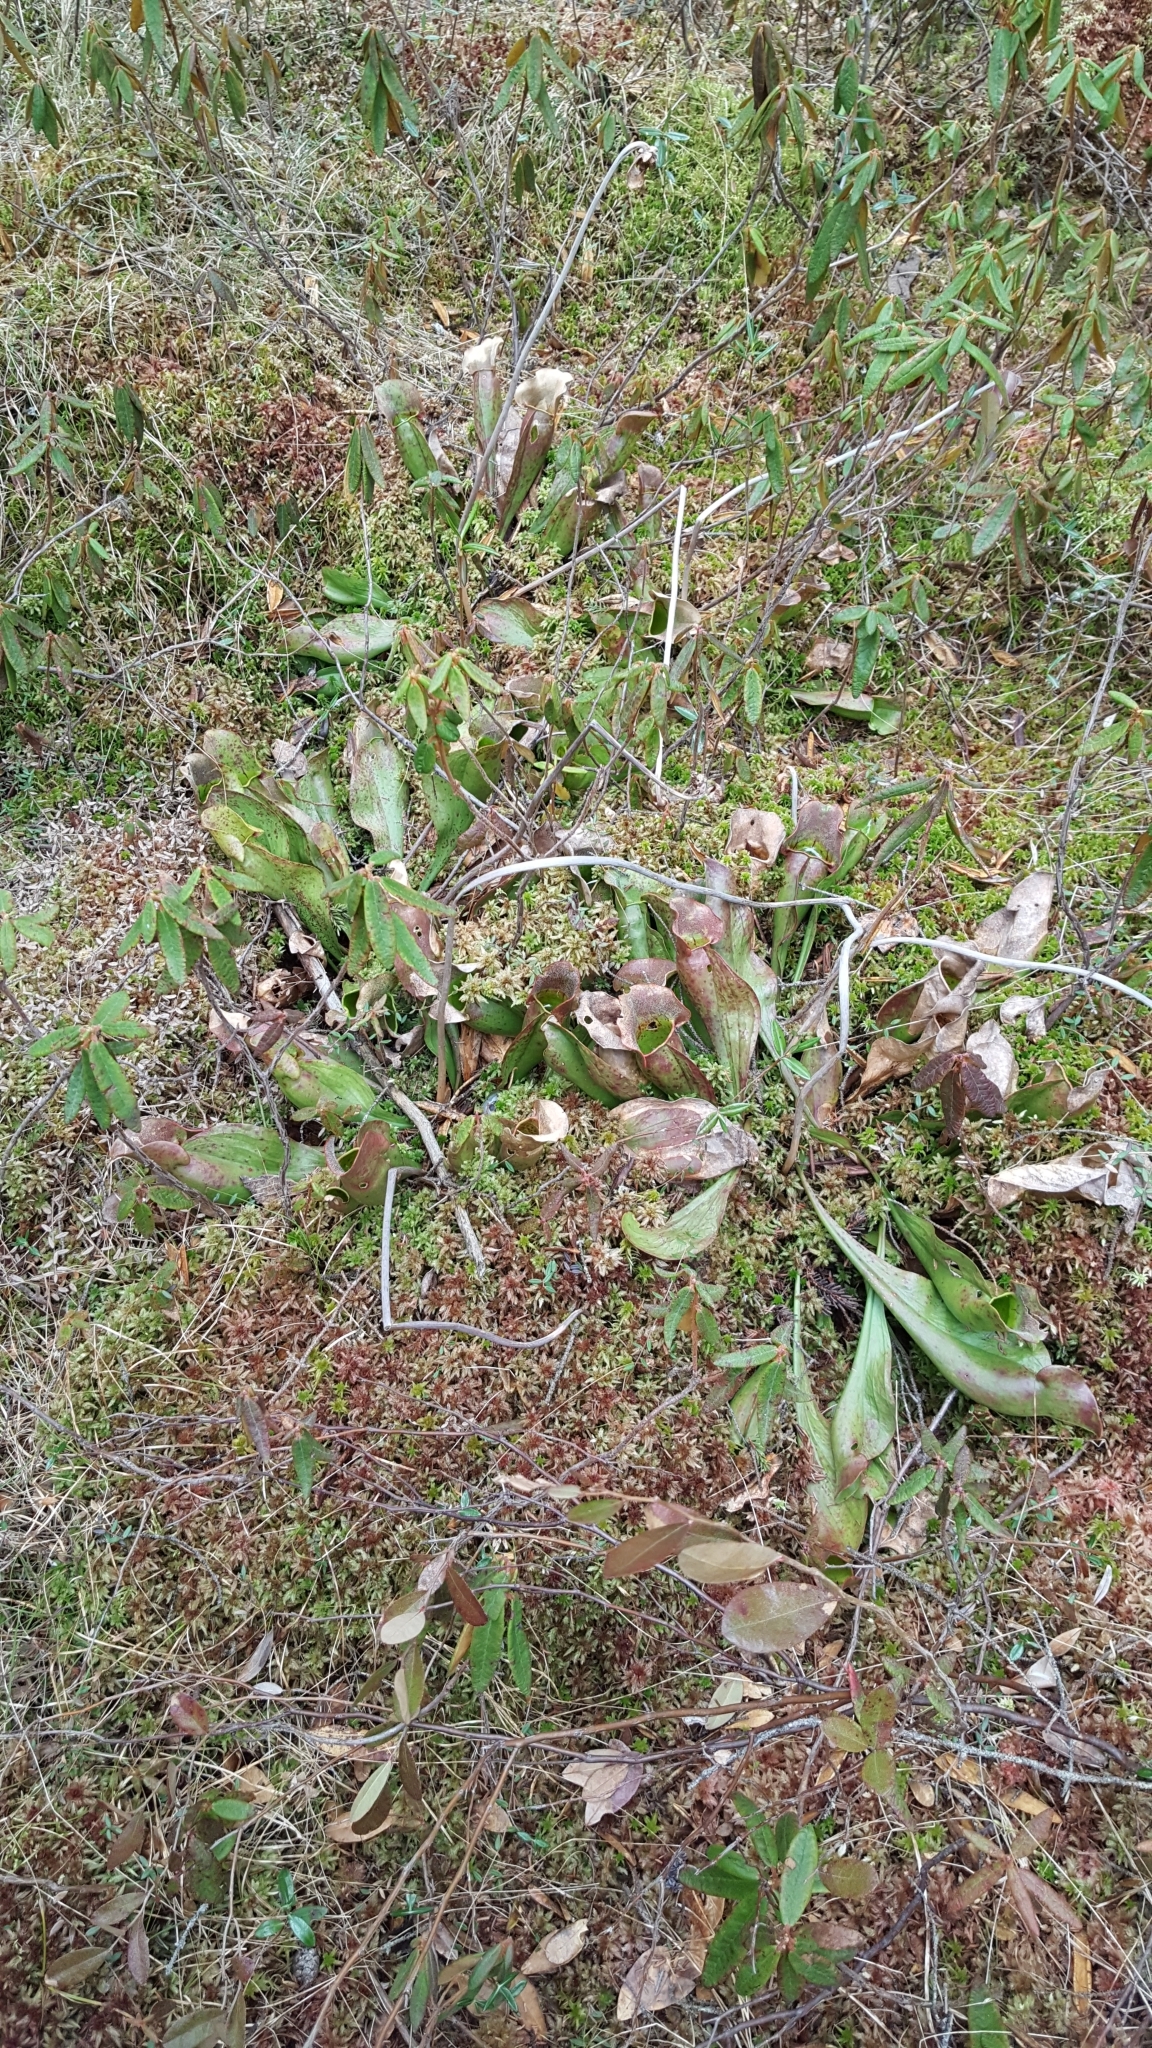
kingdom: Plantae
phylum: Tracheophyta
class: Magnoliopsida
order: Ericales
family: Sarraceniaceae
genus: Sarracenia
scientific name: Sarracenia purpurea
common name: Pitcherplant
